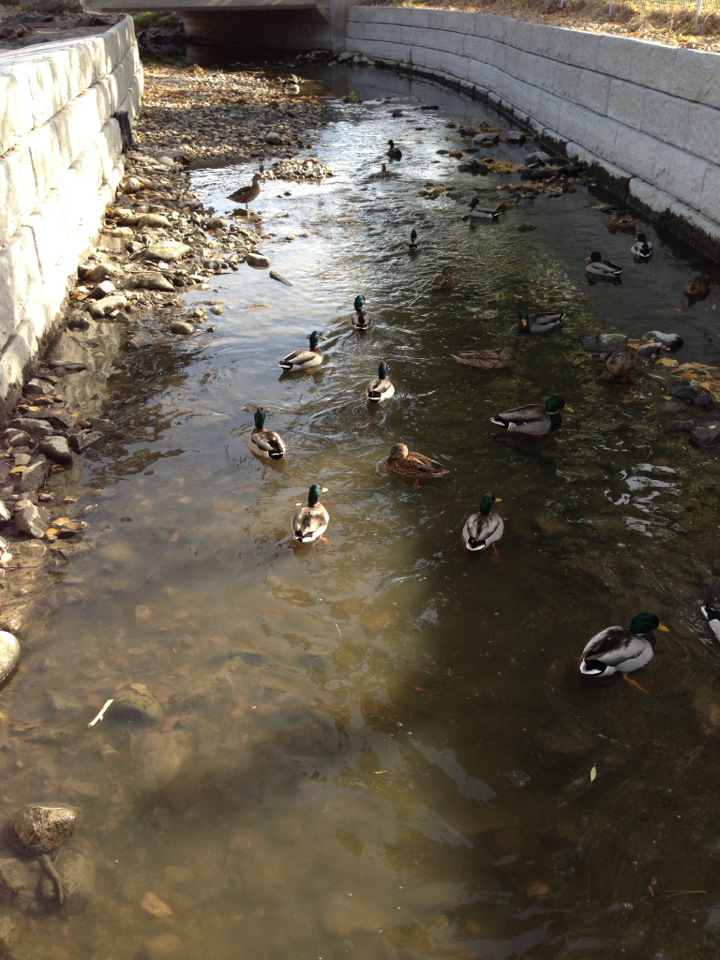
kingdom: Animalia
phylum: Chordata
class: Aves
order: Anseriformes
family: Anatidae
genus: Anas
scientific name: Anas platyrhynchos
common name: Mallard
